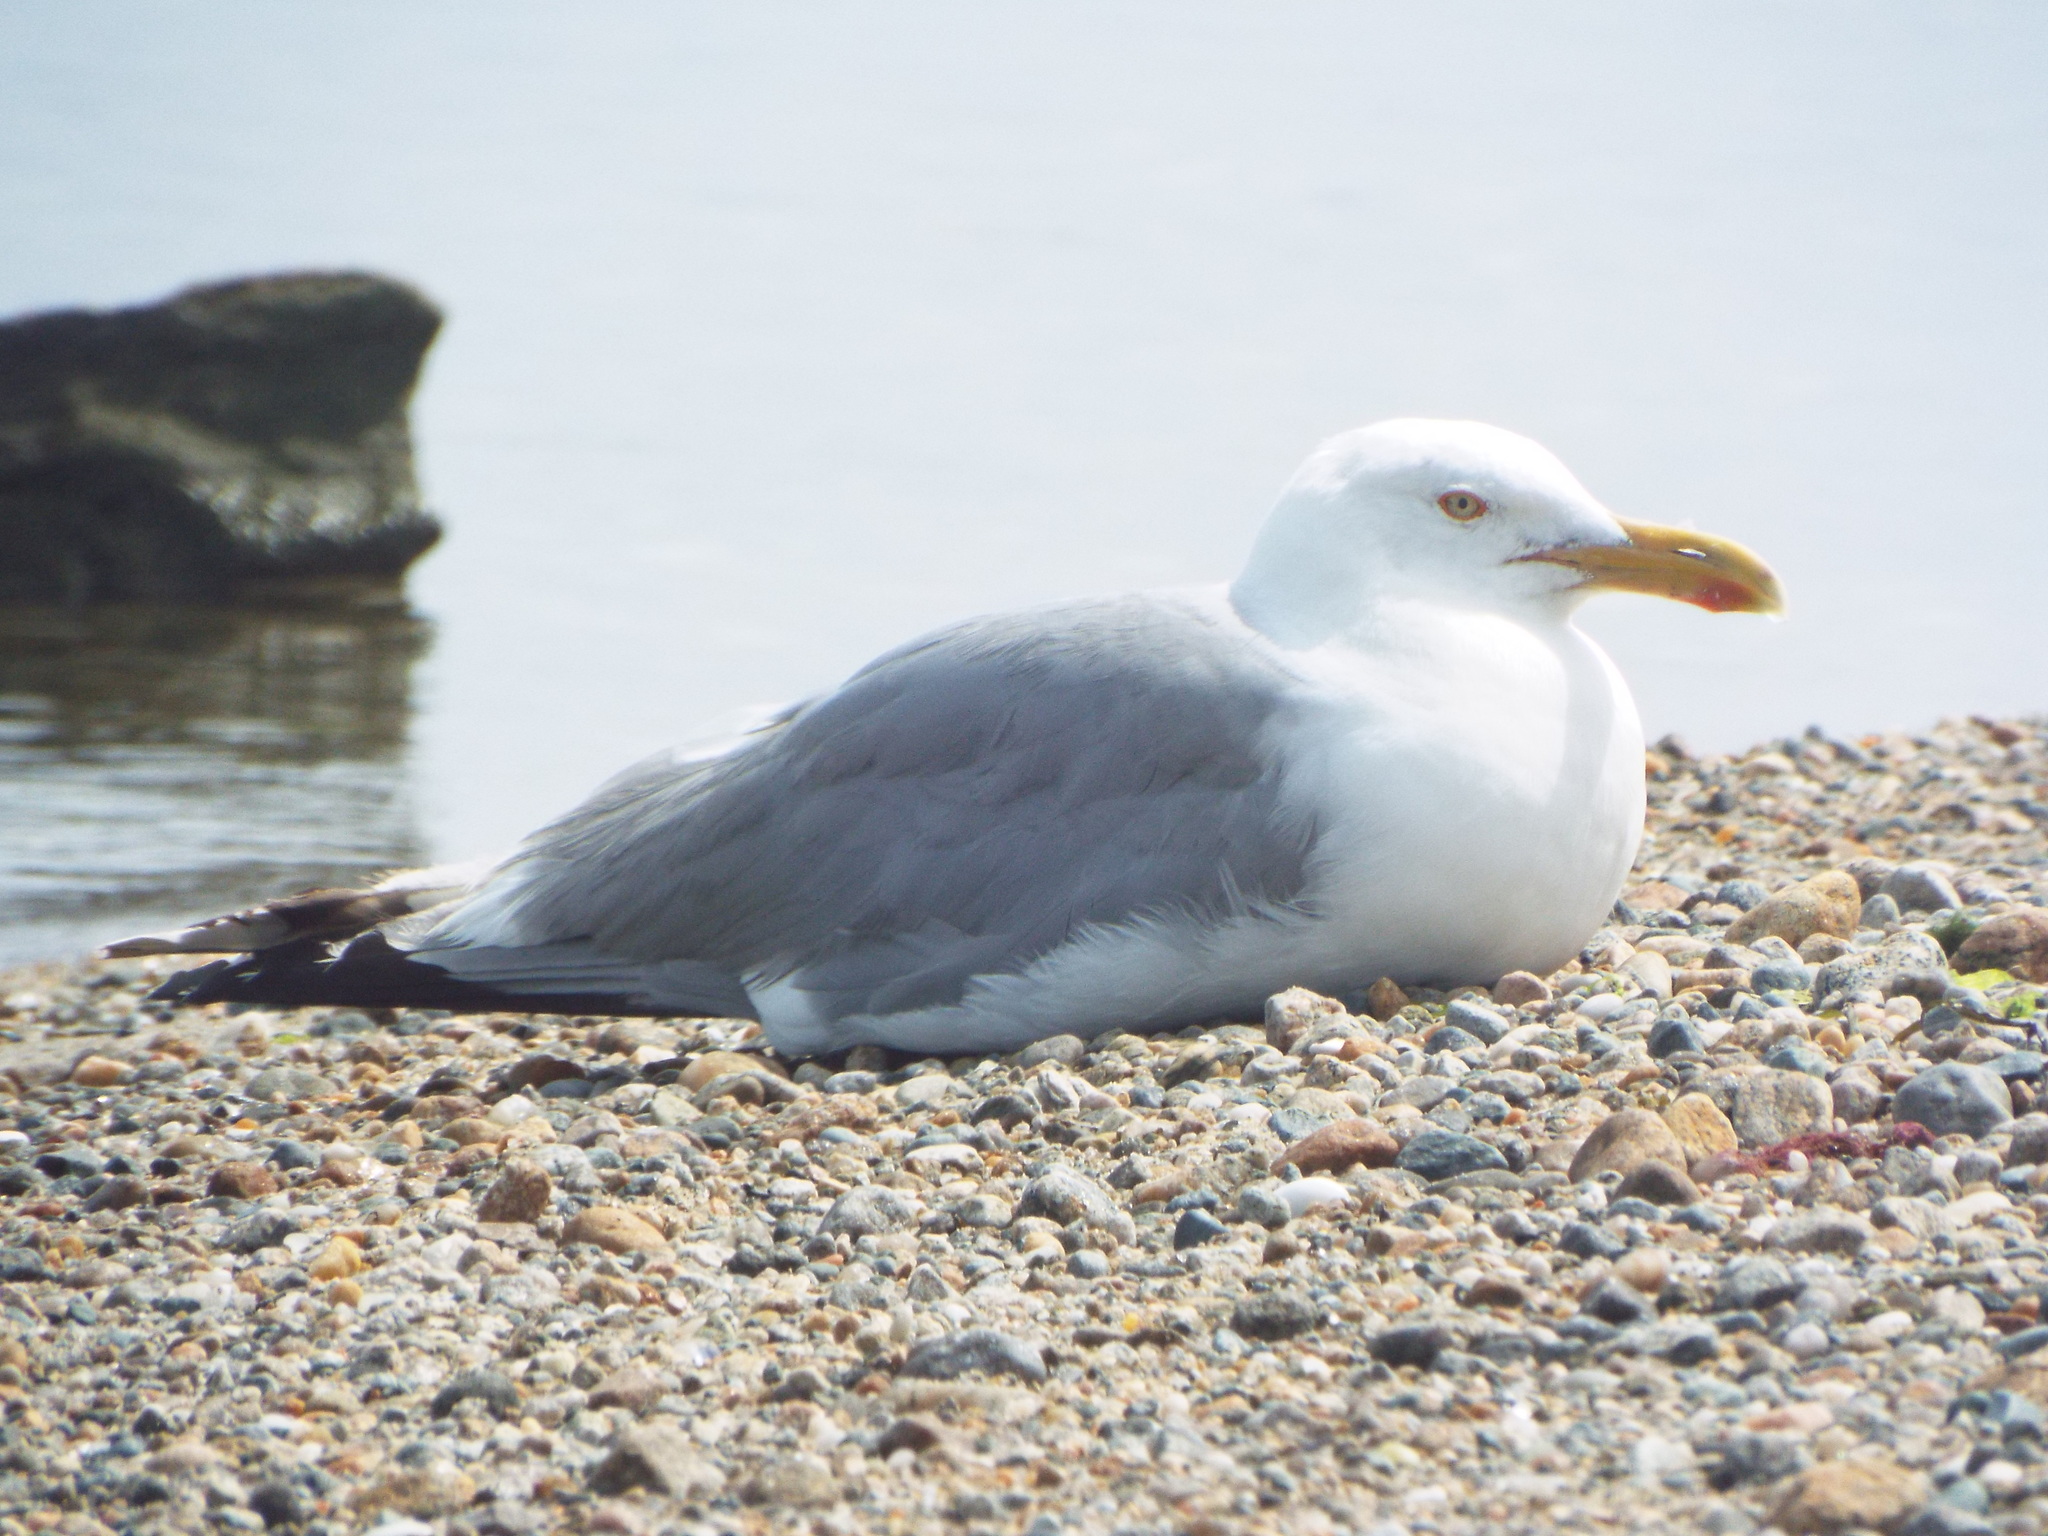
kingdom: Animalia
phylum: Chordata
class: Aves
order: Charadriiformes
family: Laridae
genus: Larus
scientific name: Larus argentatus
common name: Herring gull
